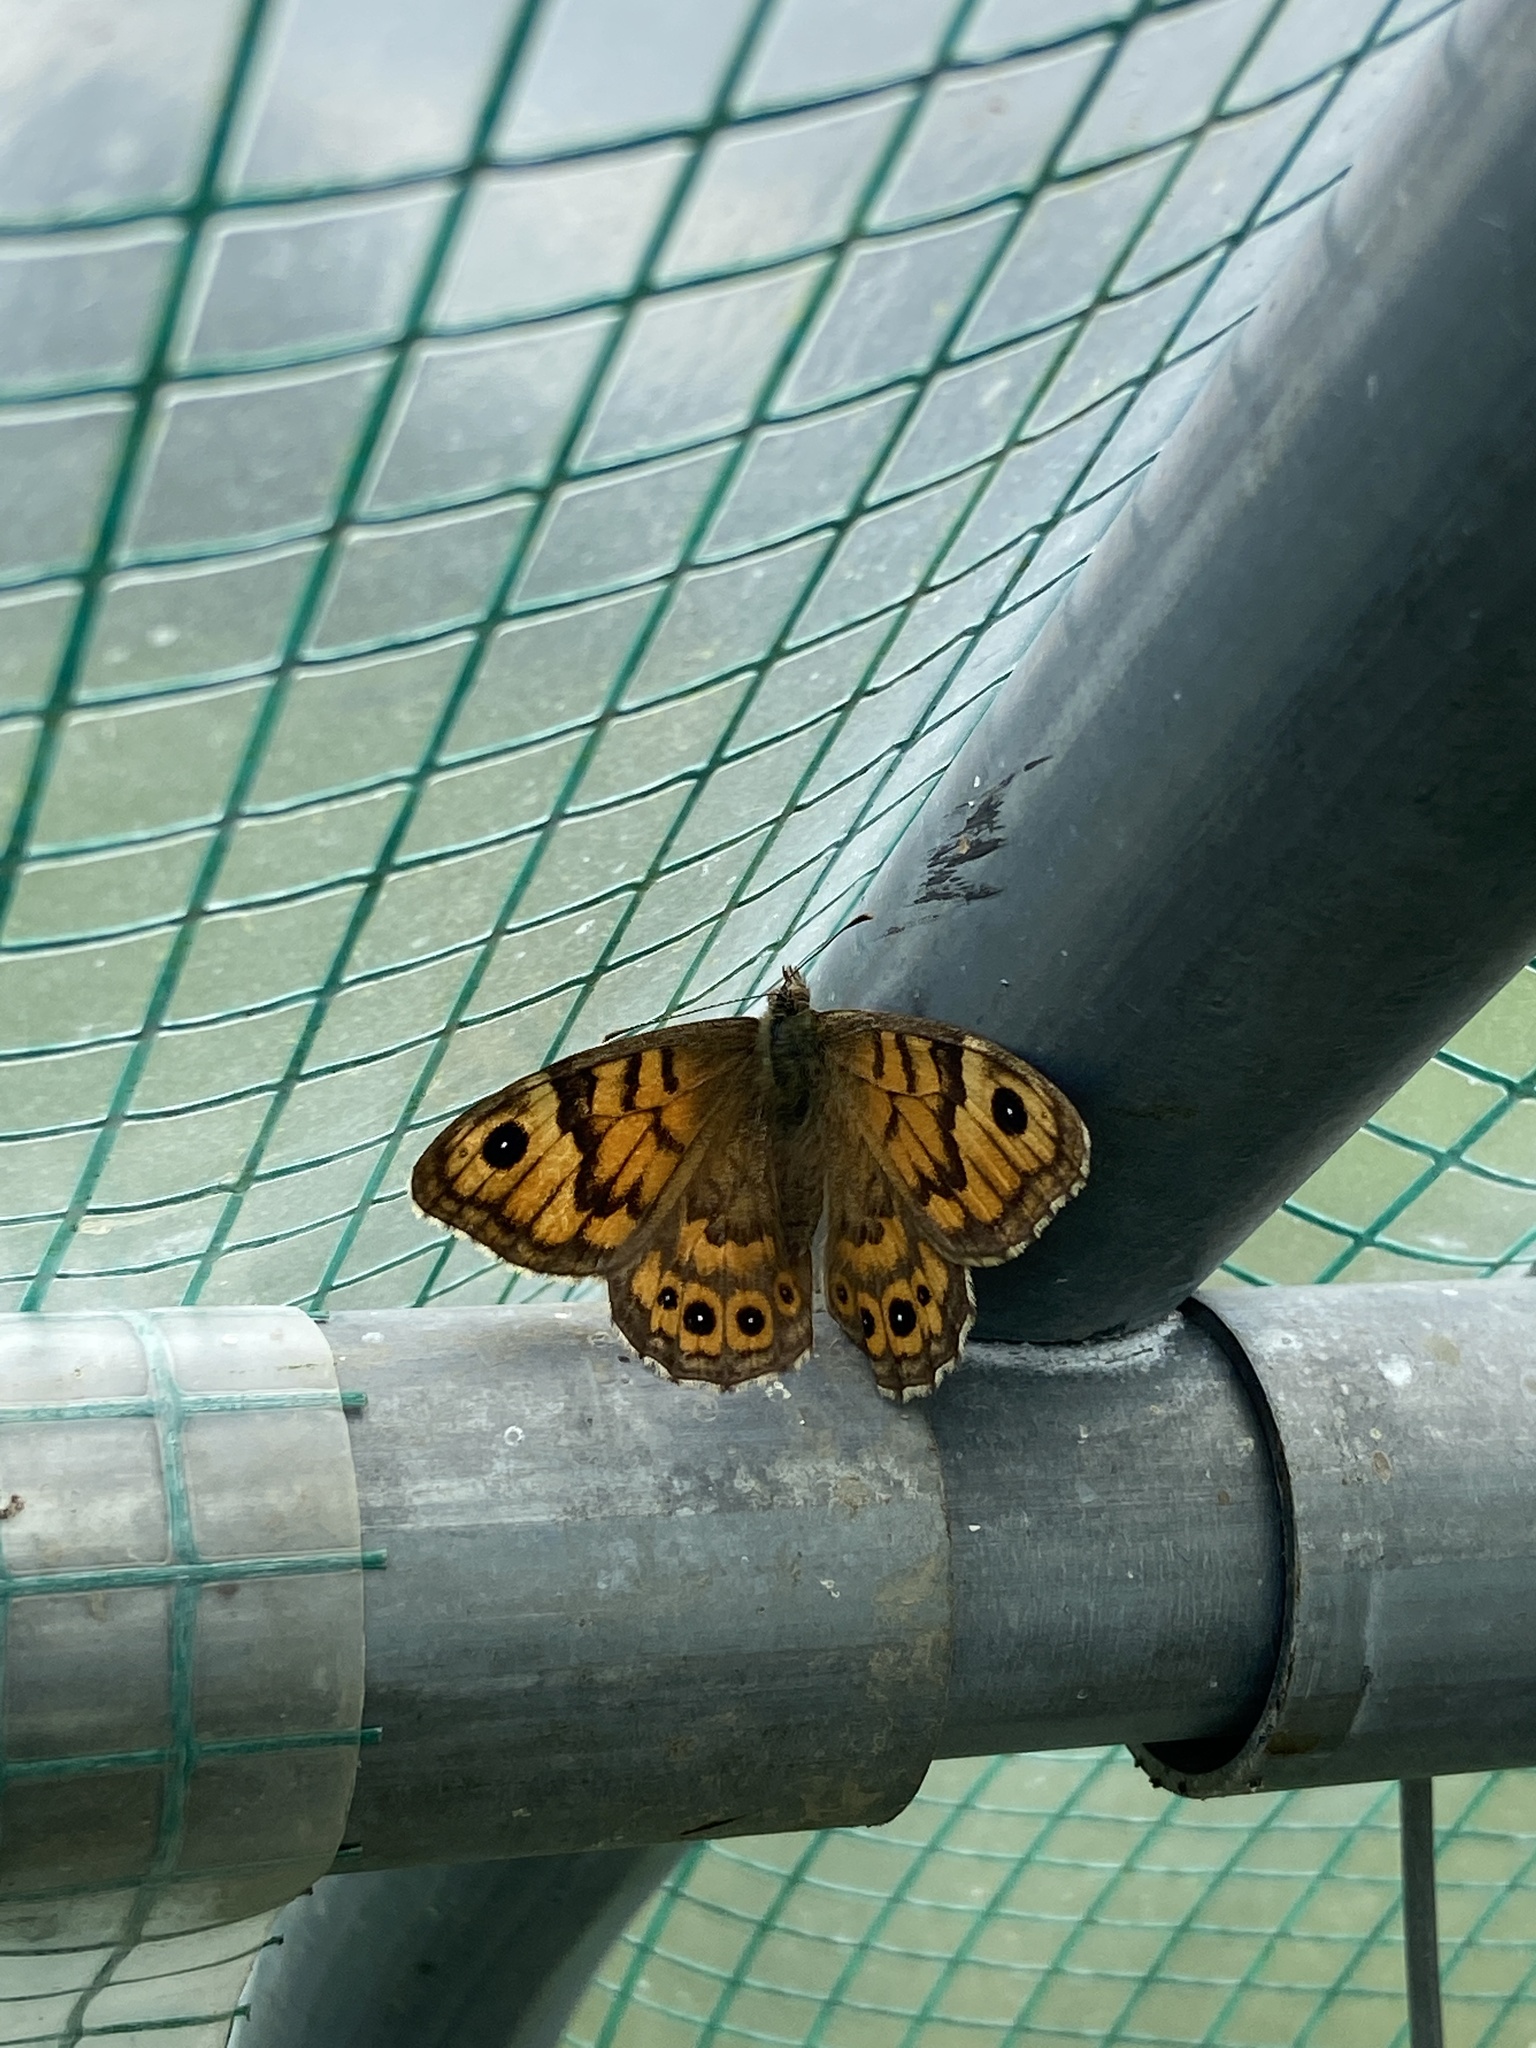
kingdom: Animalia
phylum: Arthropoda
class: Insecta
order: Lepidoptera
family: Nymphalidae
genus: Pararge
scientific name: Pararge Lasiommata megera
